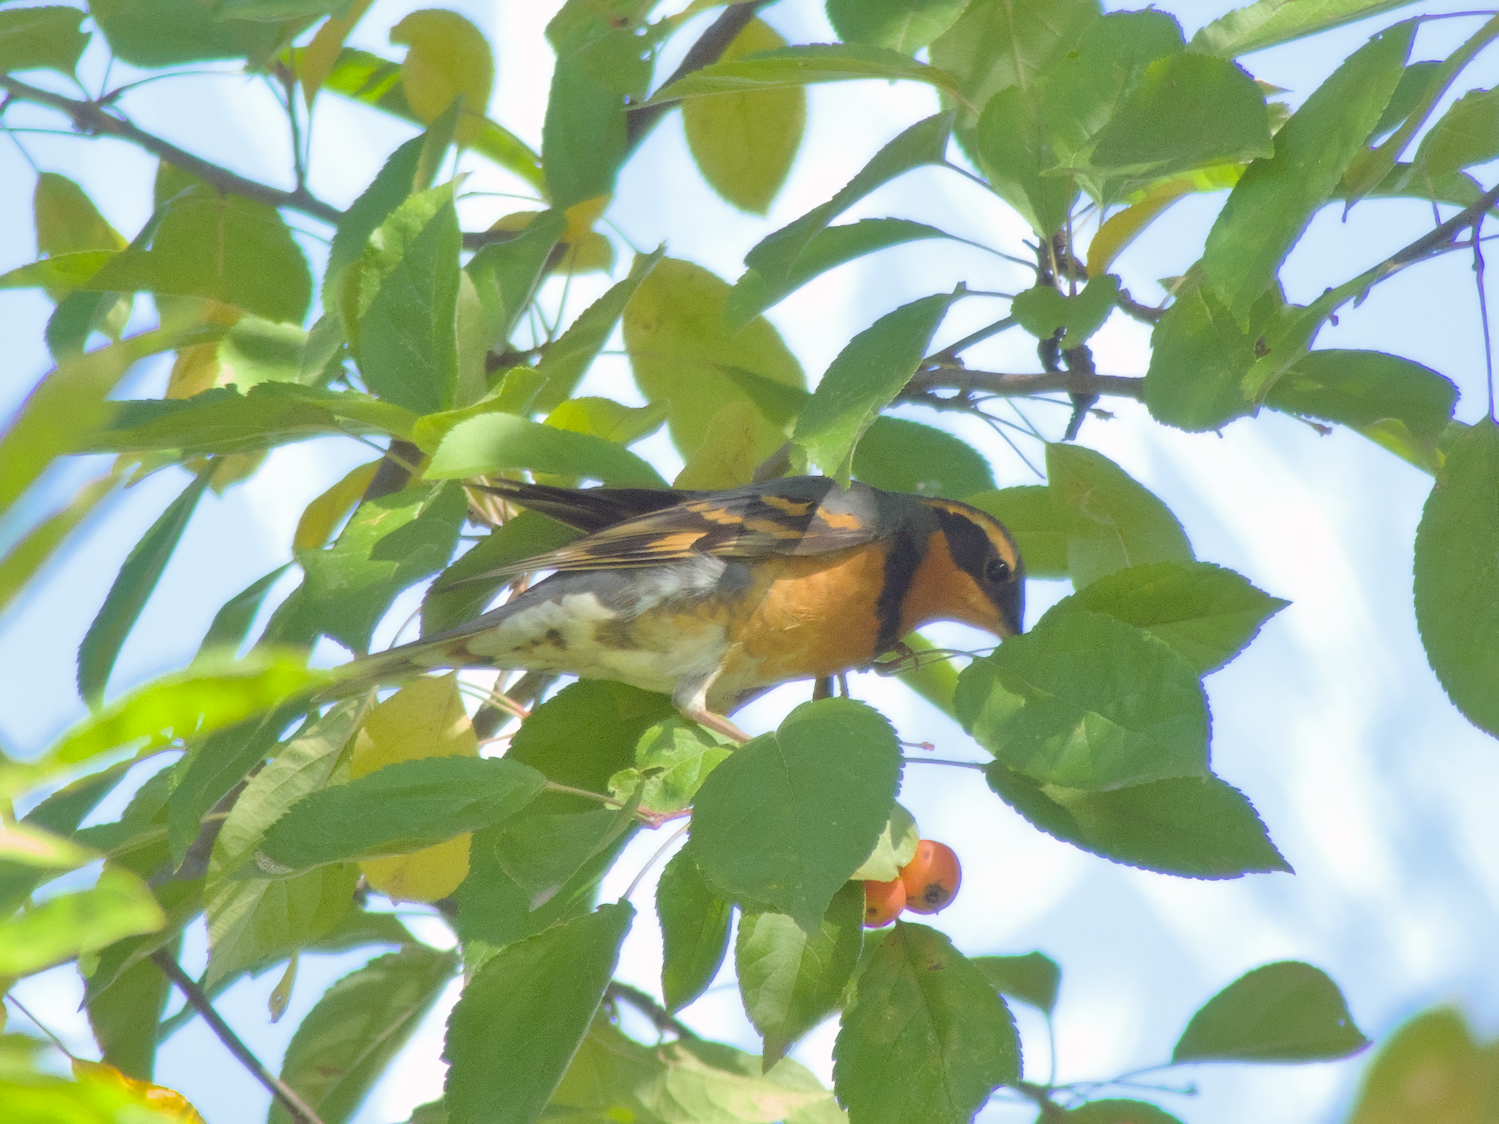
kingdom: Animalia
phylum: Chordata
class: Aves
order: Passeriformes
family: Turdidae
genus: Ixoreus
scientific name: Ixoreus naevius
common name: Varied thrush
